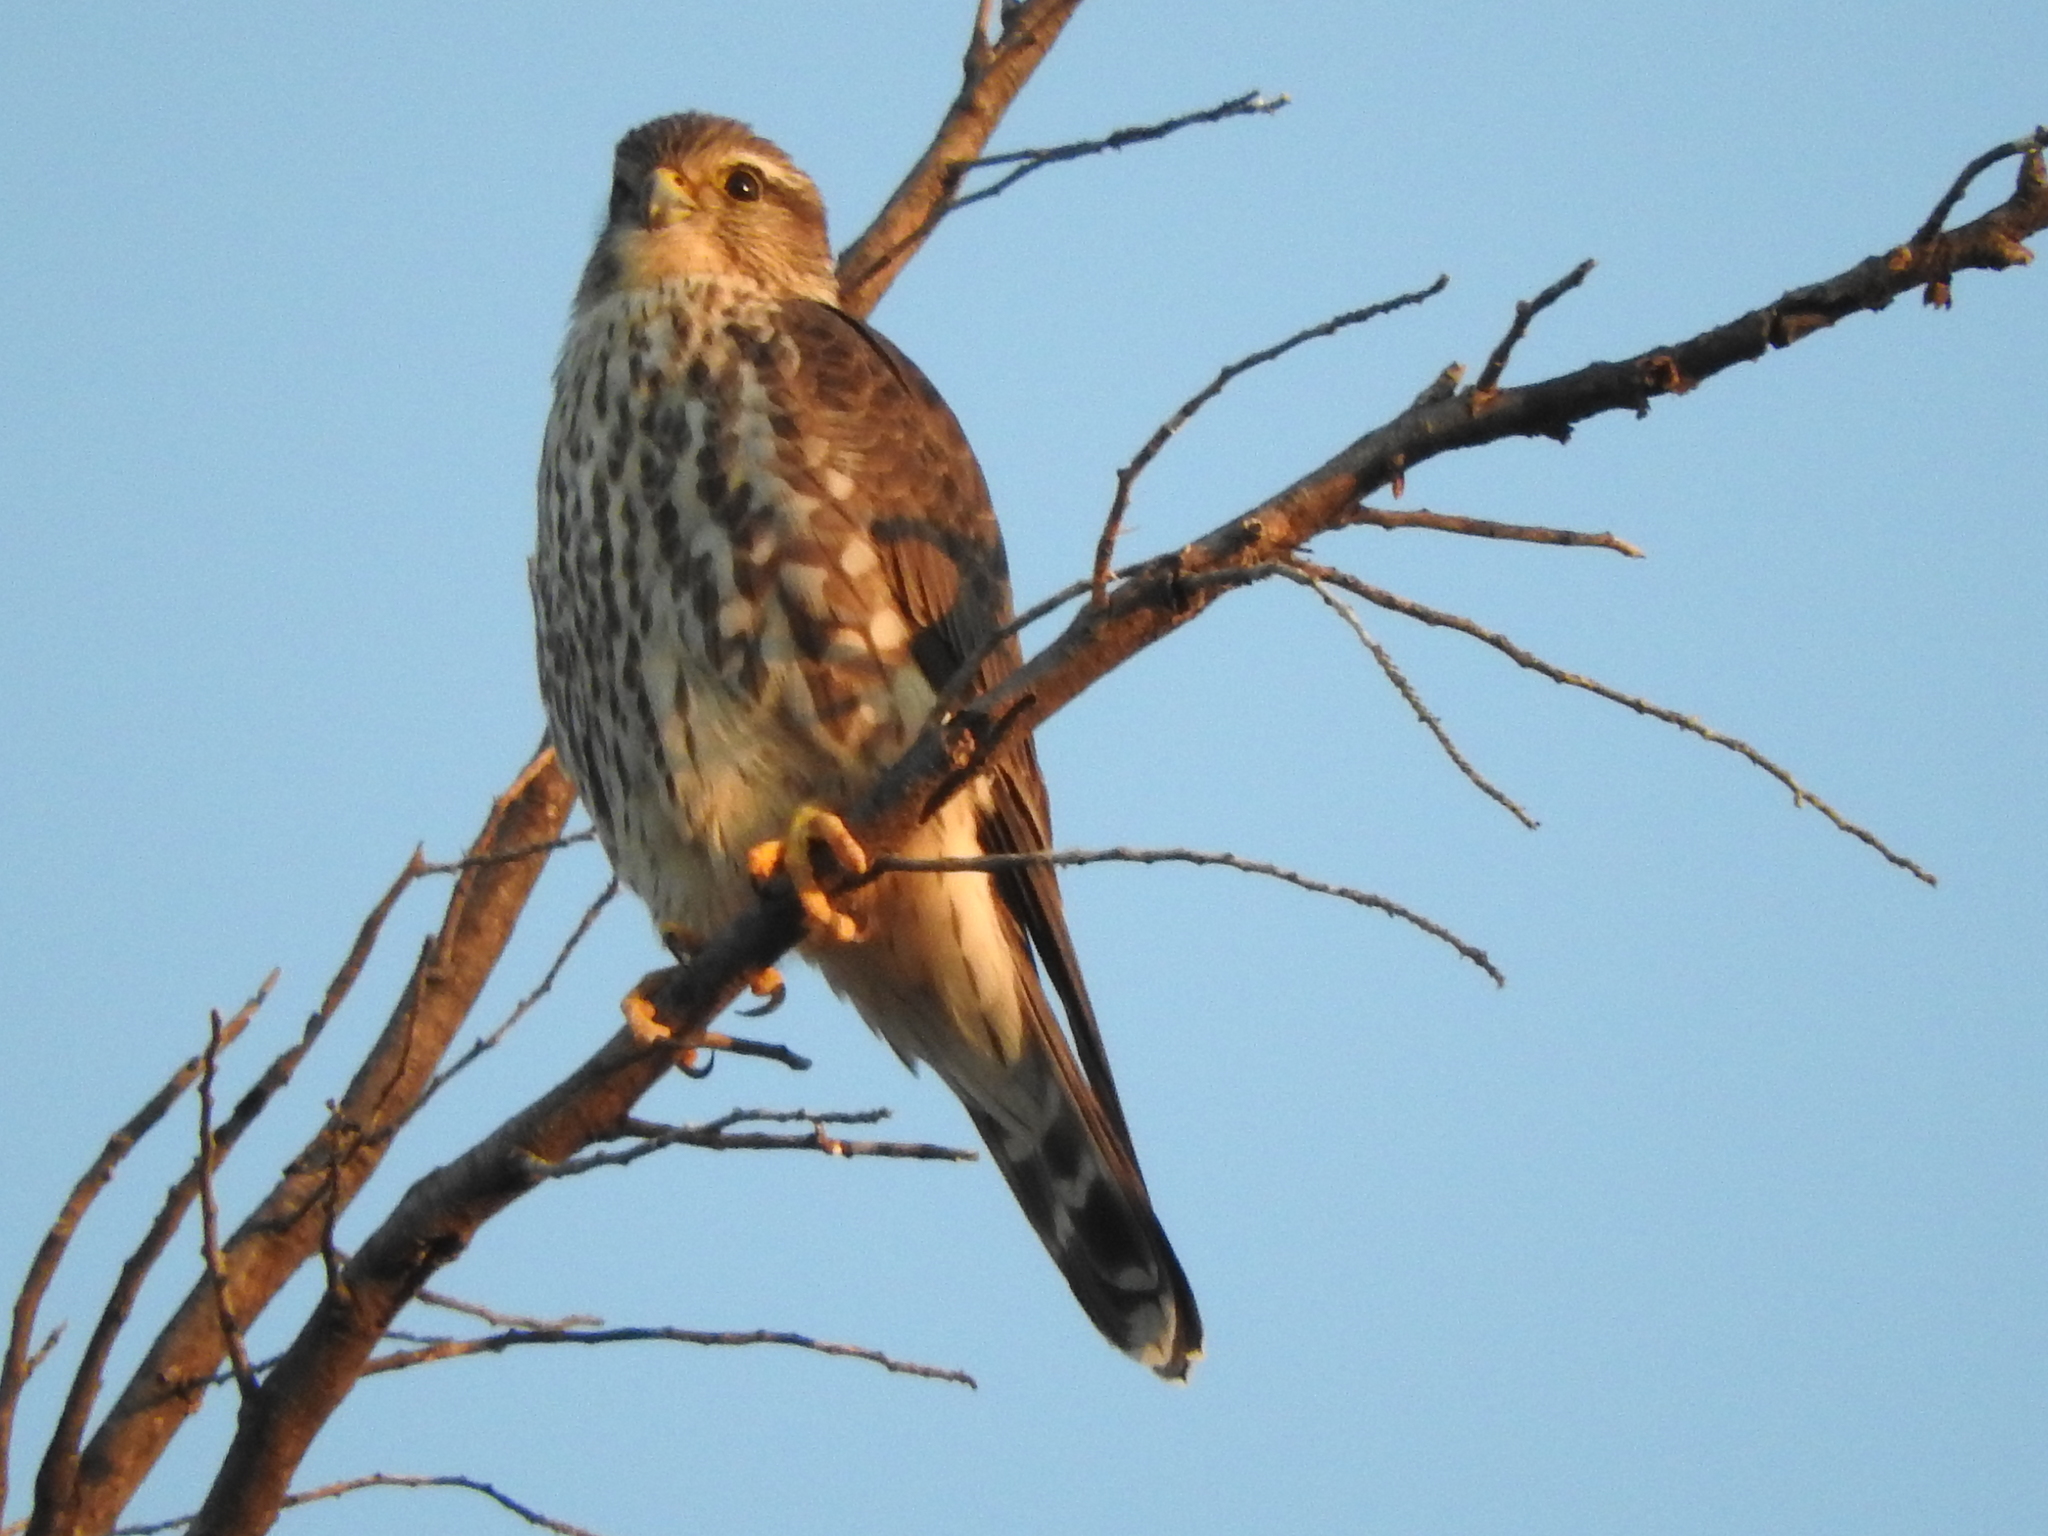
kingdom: Animalia
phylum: Chordata
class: Aves
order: Falconiformes
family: Falconidae
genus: Falco
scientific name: Falco columbarius
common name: Merlin
